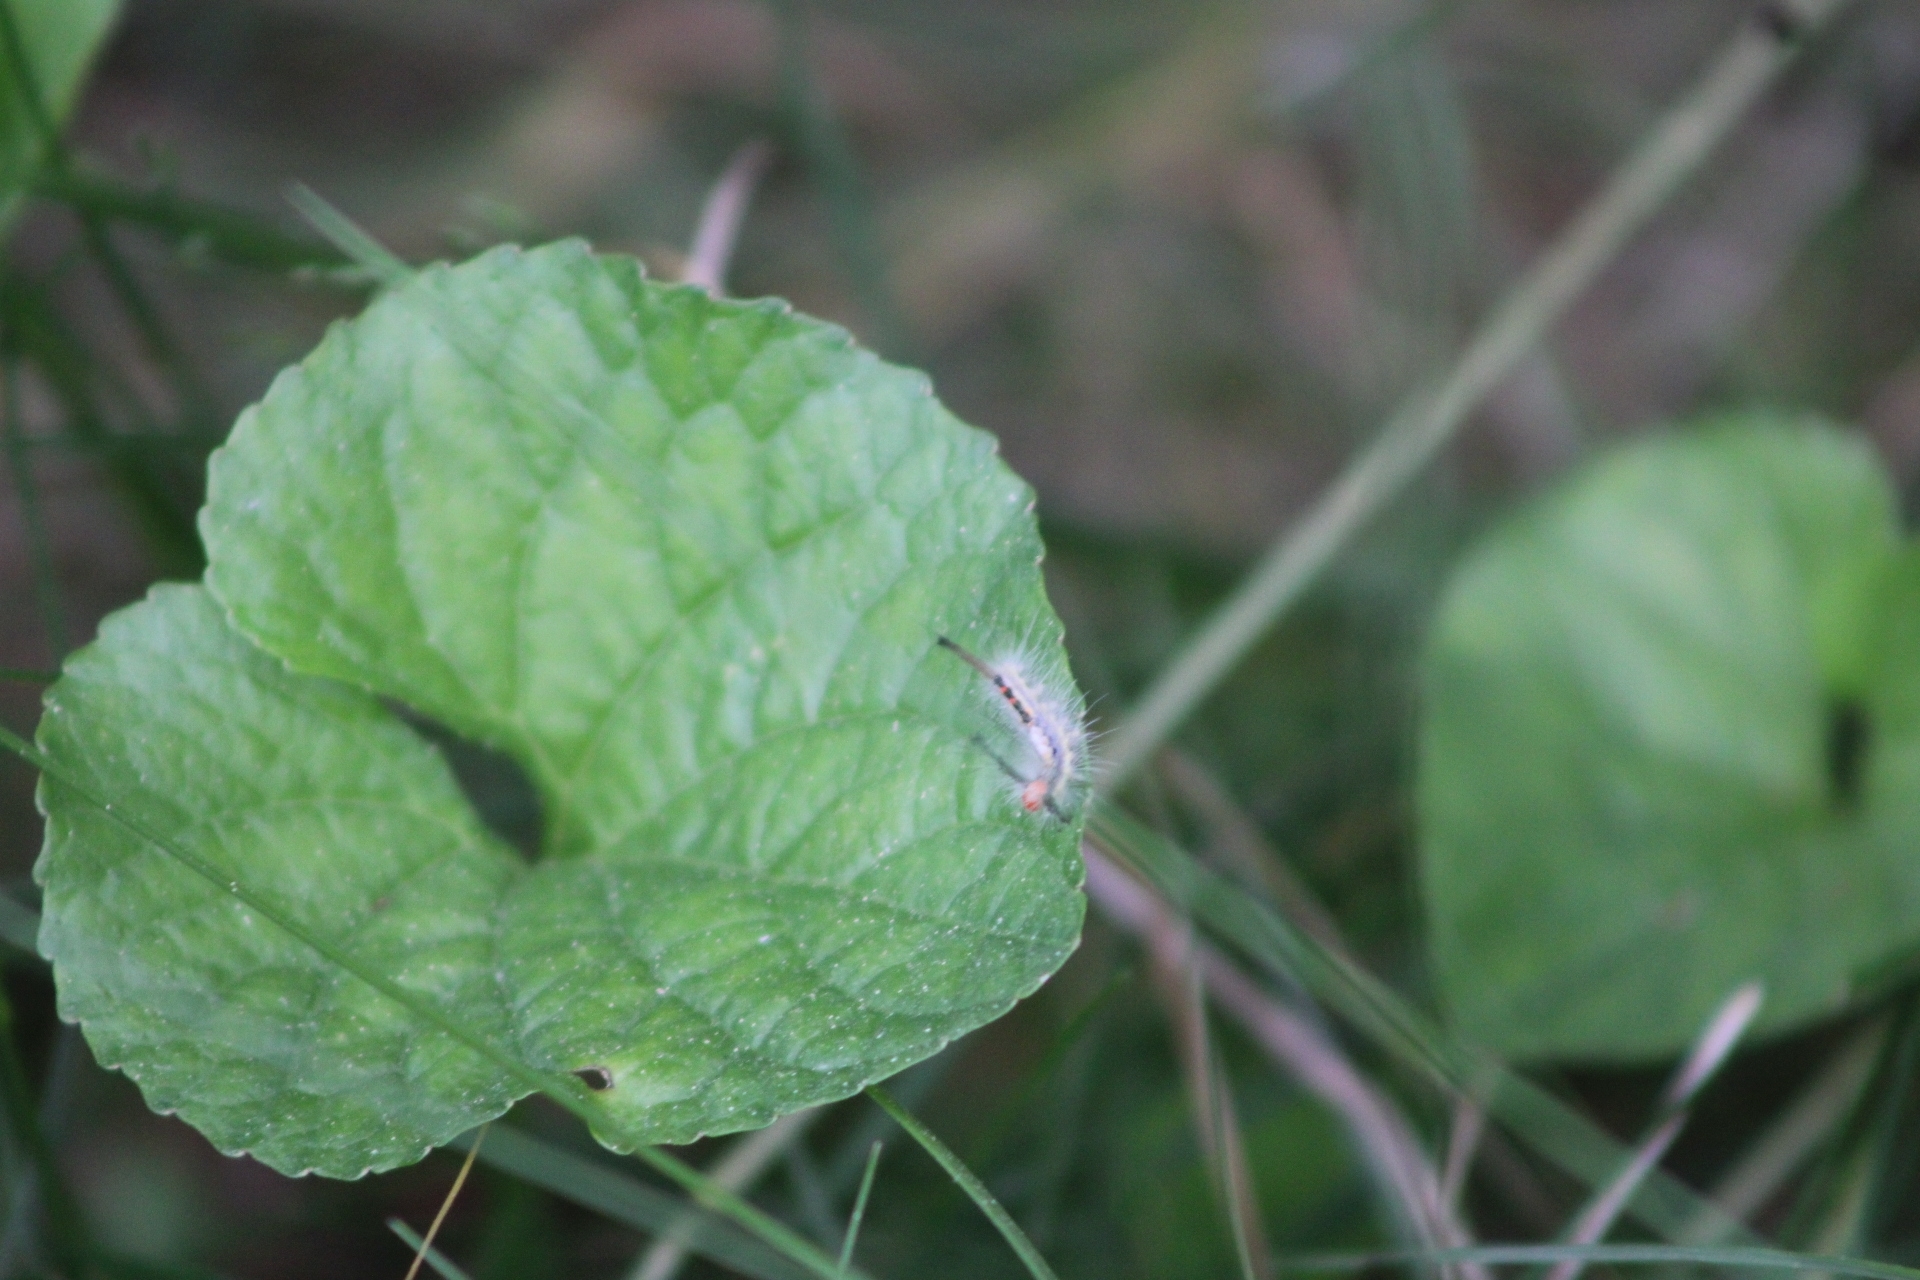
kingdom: Animalia
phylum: Arthropoda
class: Insecta
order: Lepidoptera
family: Erebidae
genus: Orgyia
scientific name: Orgyia leucostigma
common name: White-marked tussock moth
